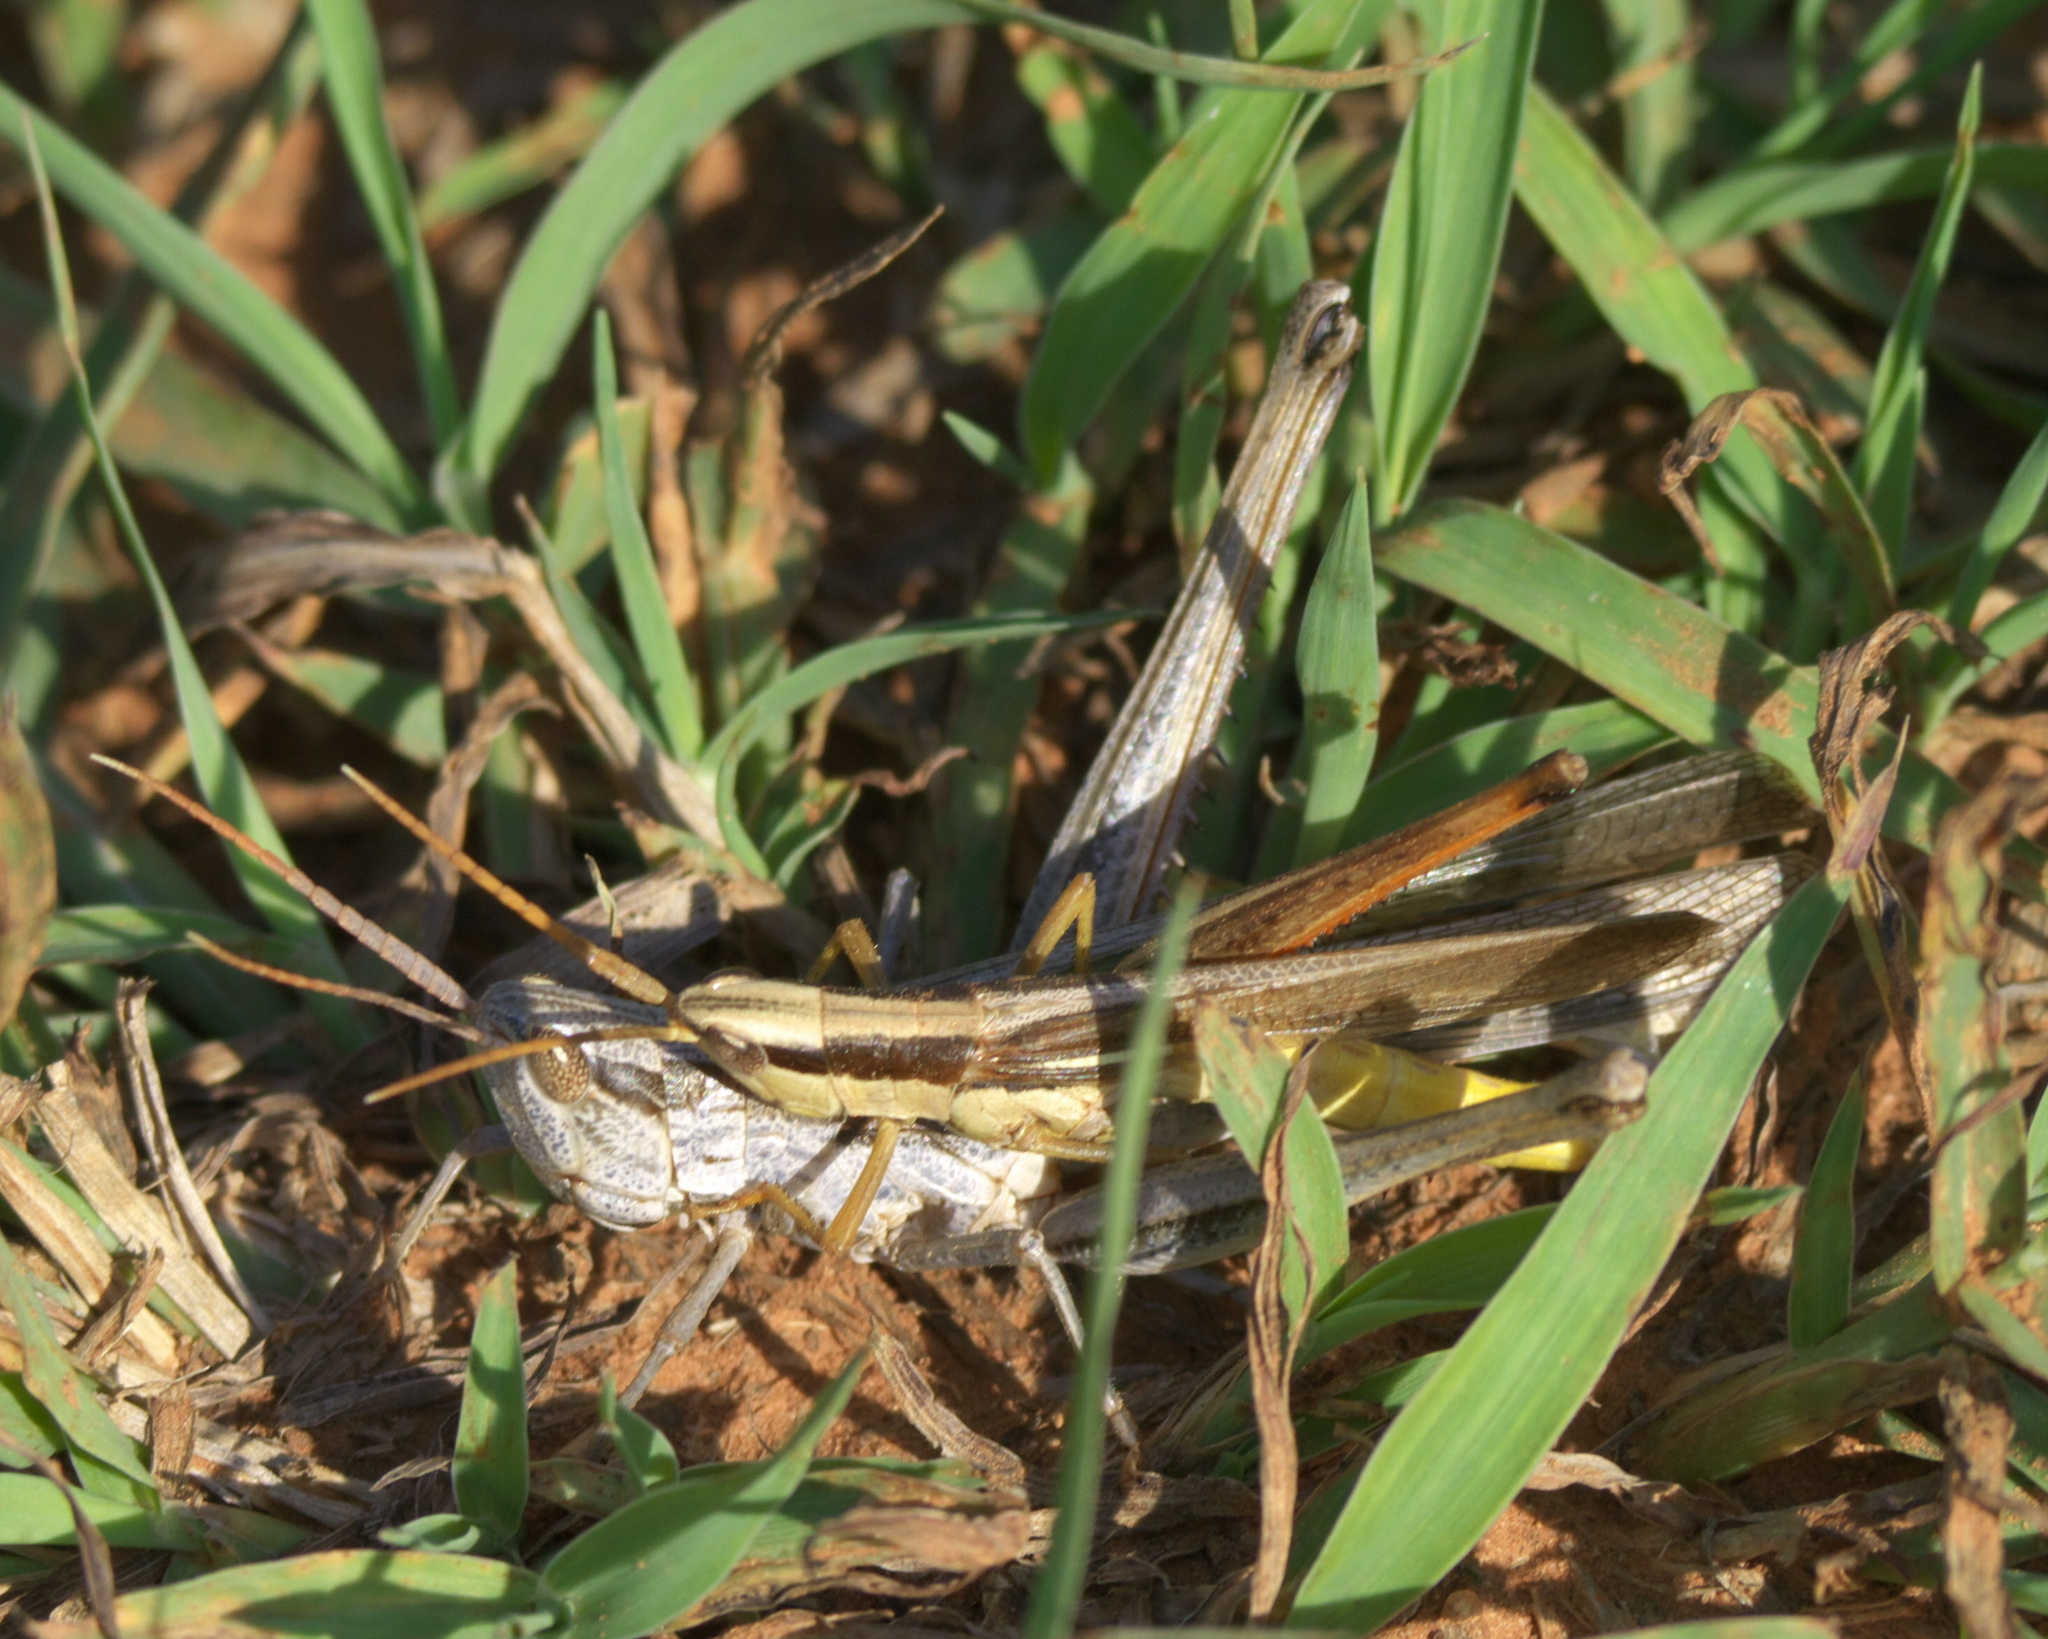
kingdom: Animalia
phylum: Arthropoda
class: Insecta
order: Orthoptera
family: Acrididae
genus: Mermiria
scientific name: Mermiria bivittata
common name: Two-striped mermiria grasshopper
